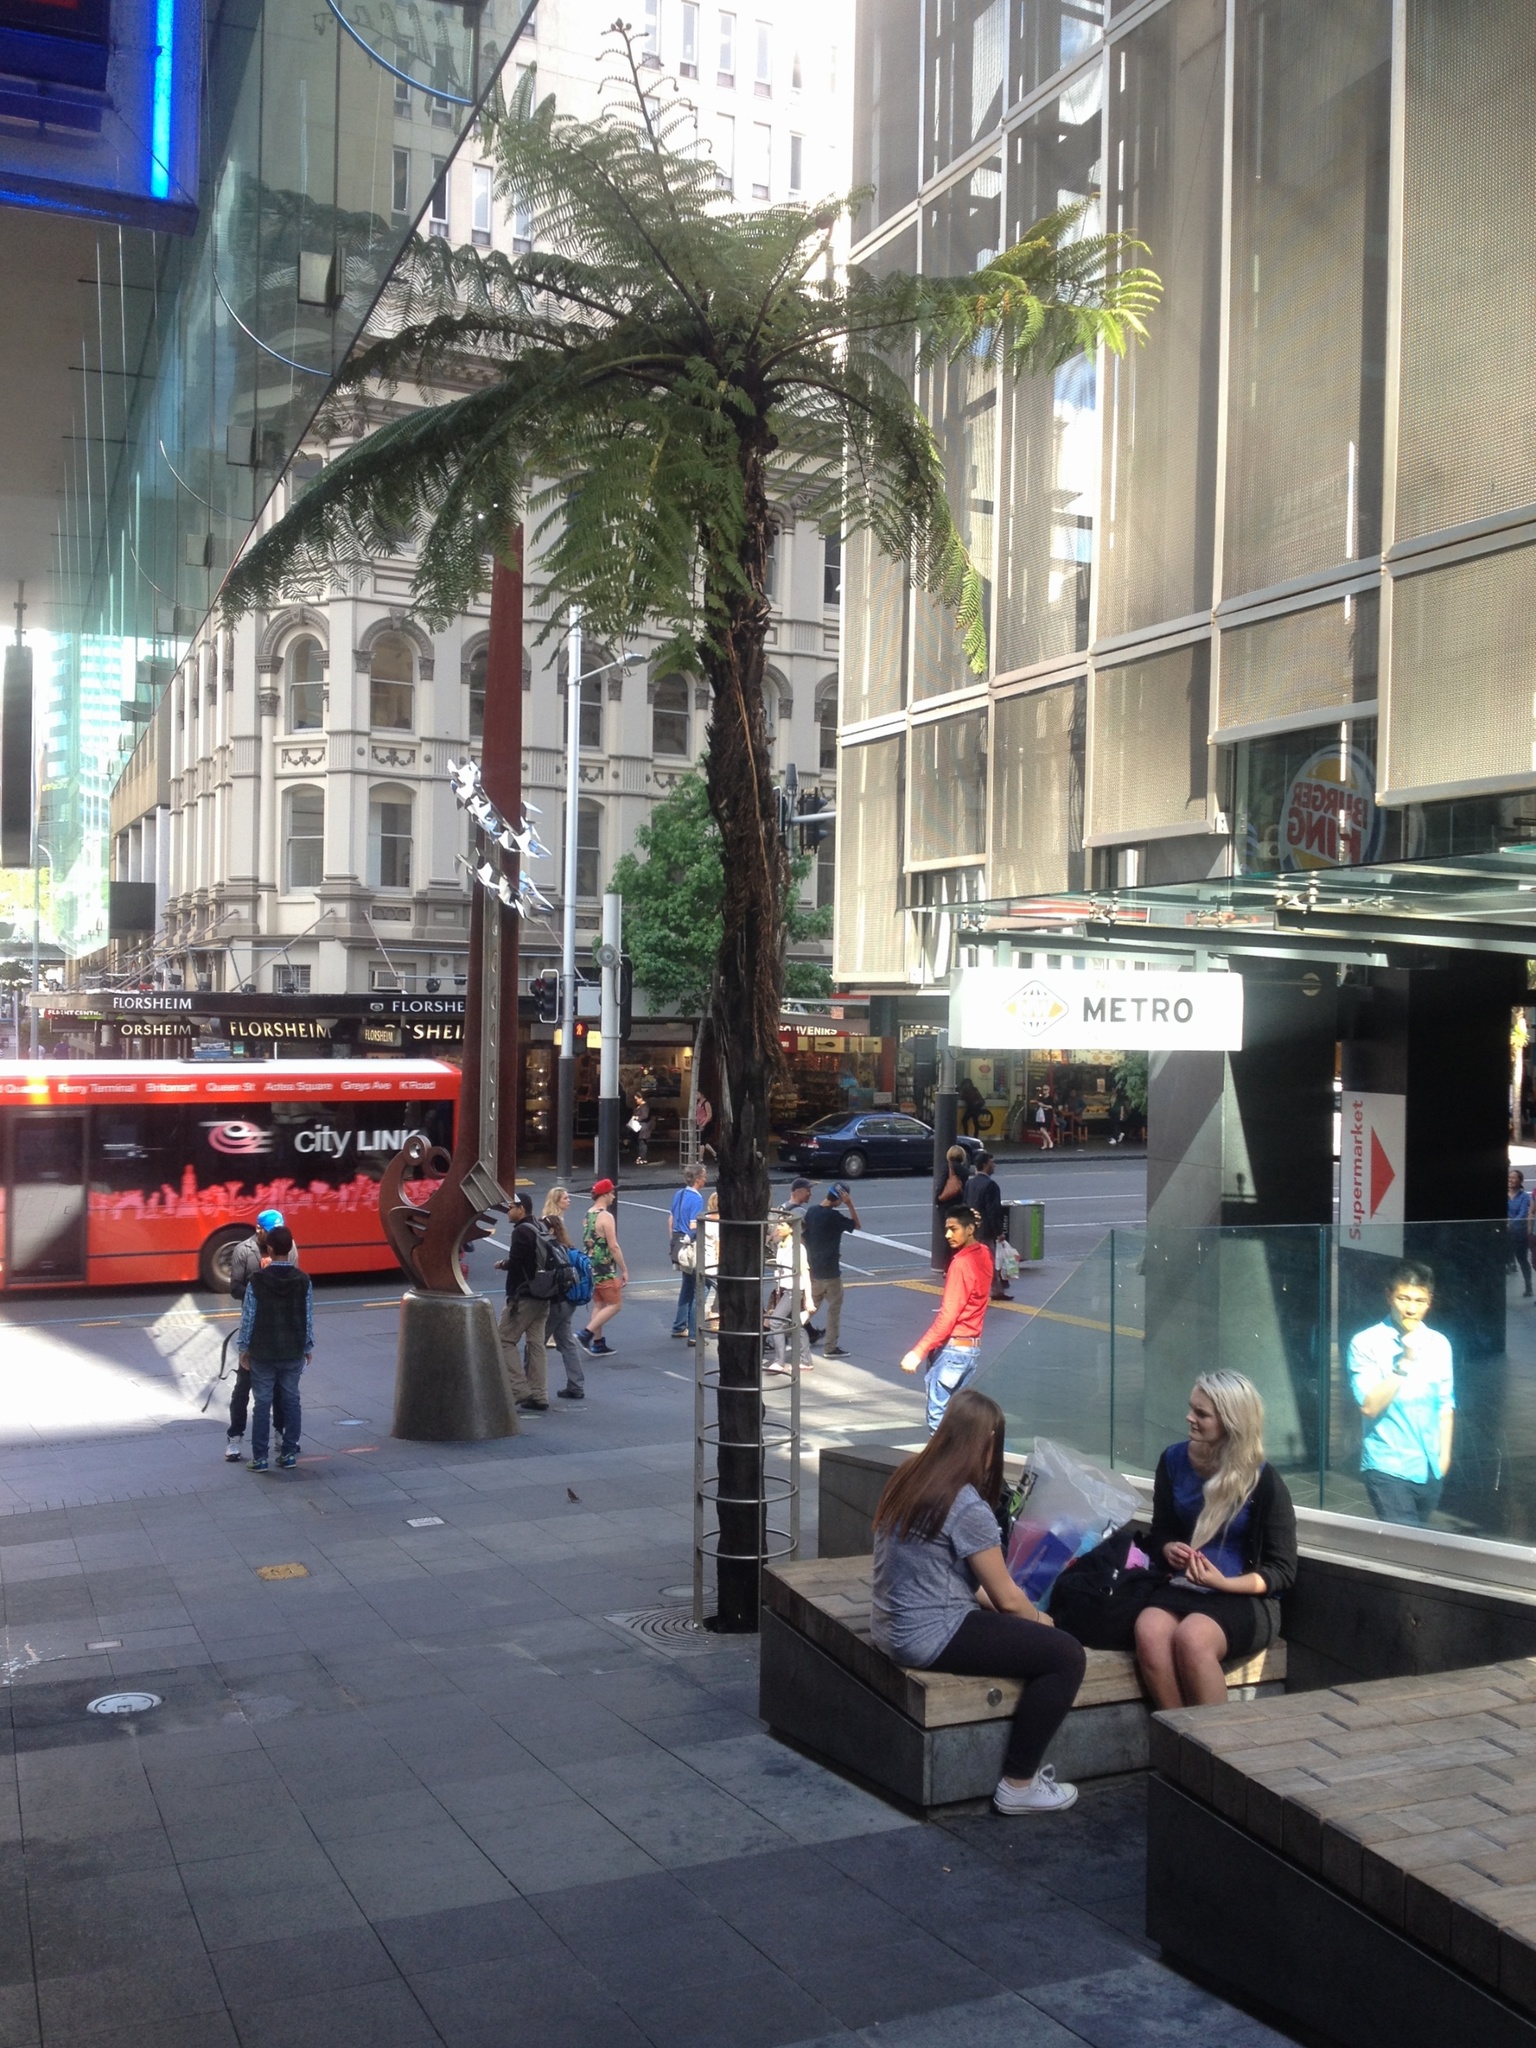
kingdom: Plantae
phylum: Tracheophyta
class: Polypodiopsida
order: Cyatheales
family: Cyatheaceae
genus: Sphaeropteris
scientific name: Sphaeropteris medullaris
